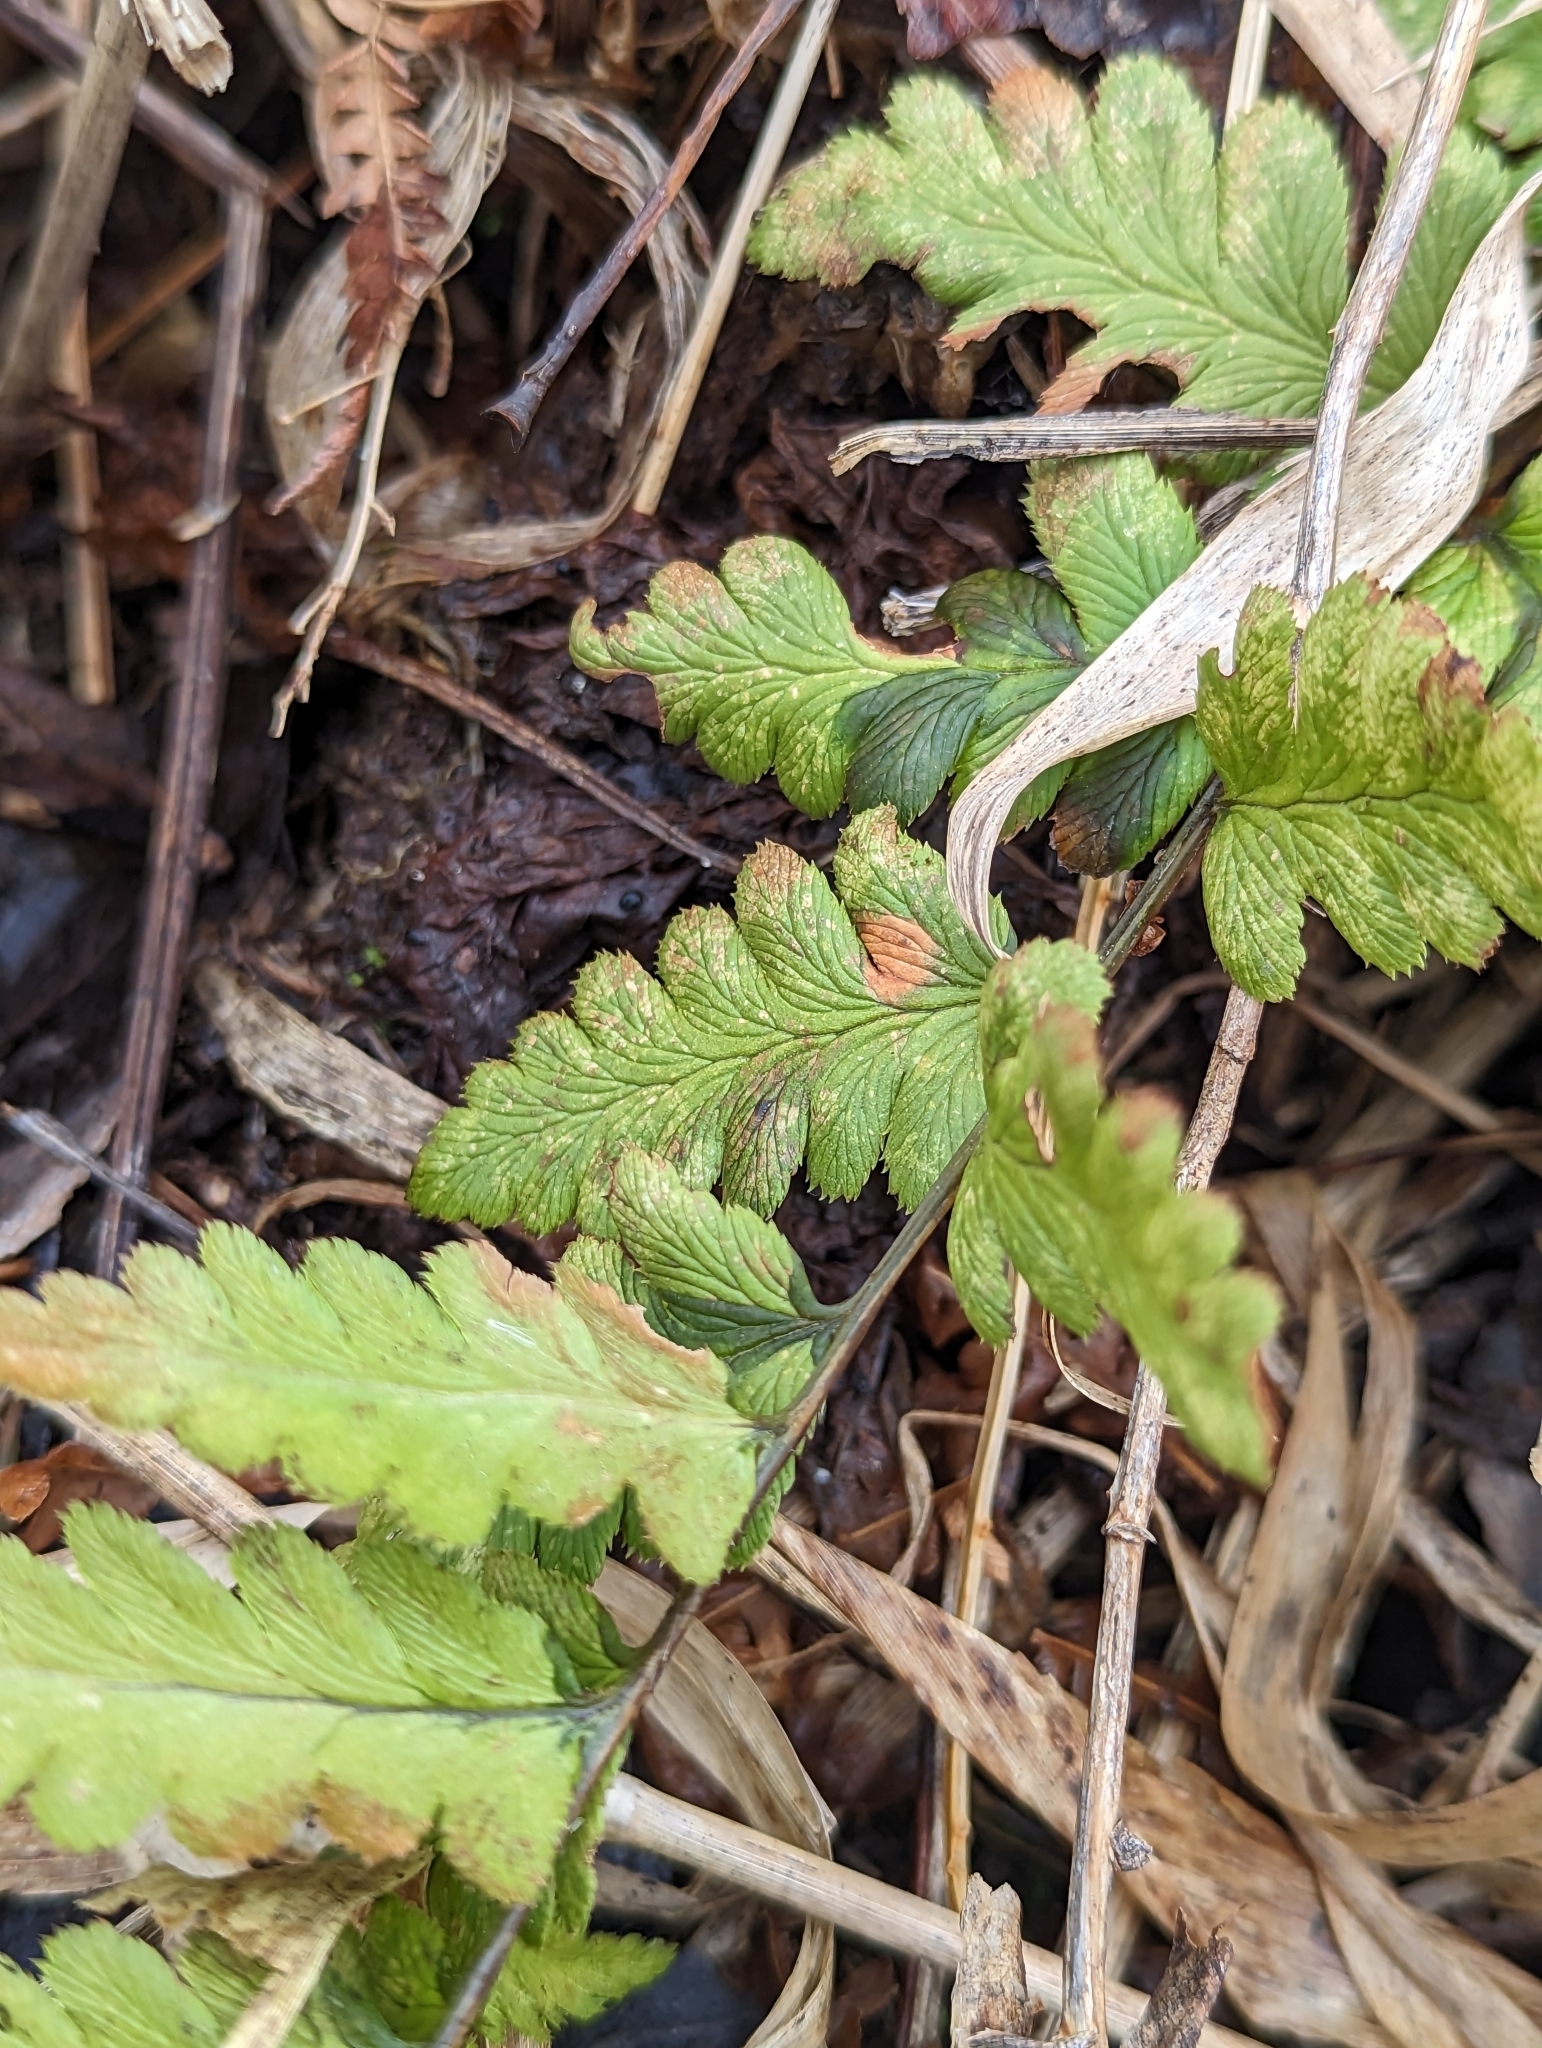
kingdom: Plantae
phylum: Tracheophyta
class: Polypodiopsida
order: Polypodiales
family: Dryopteridaceae
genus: Dryopteris
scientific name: Dryopteris cristata
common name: Crested wood fern
